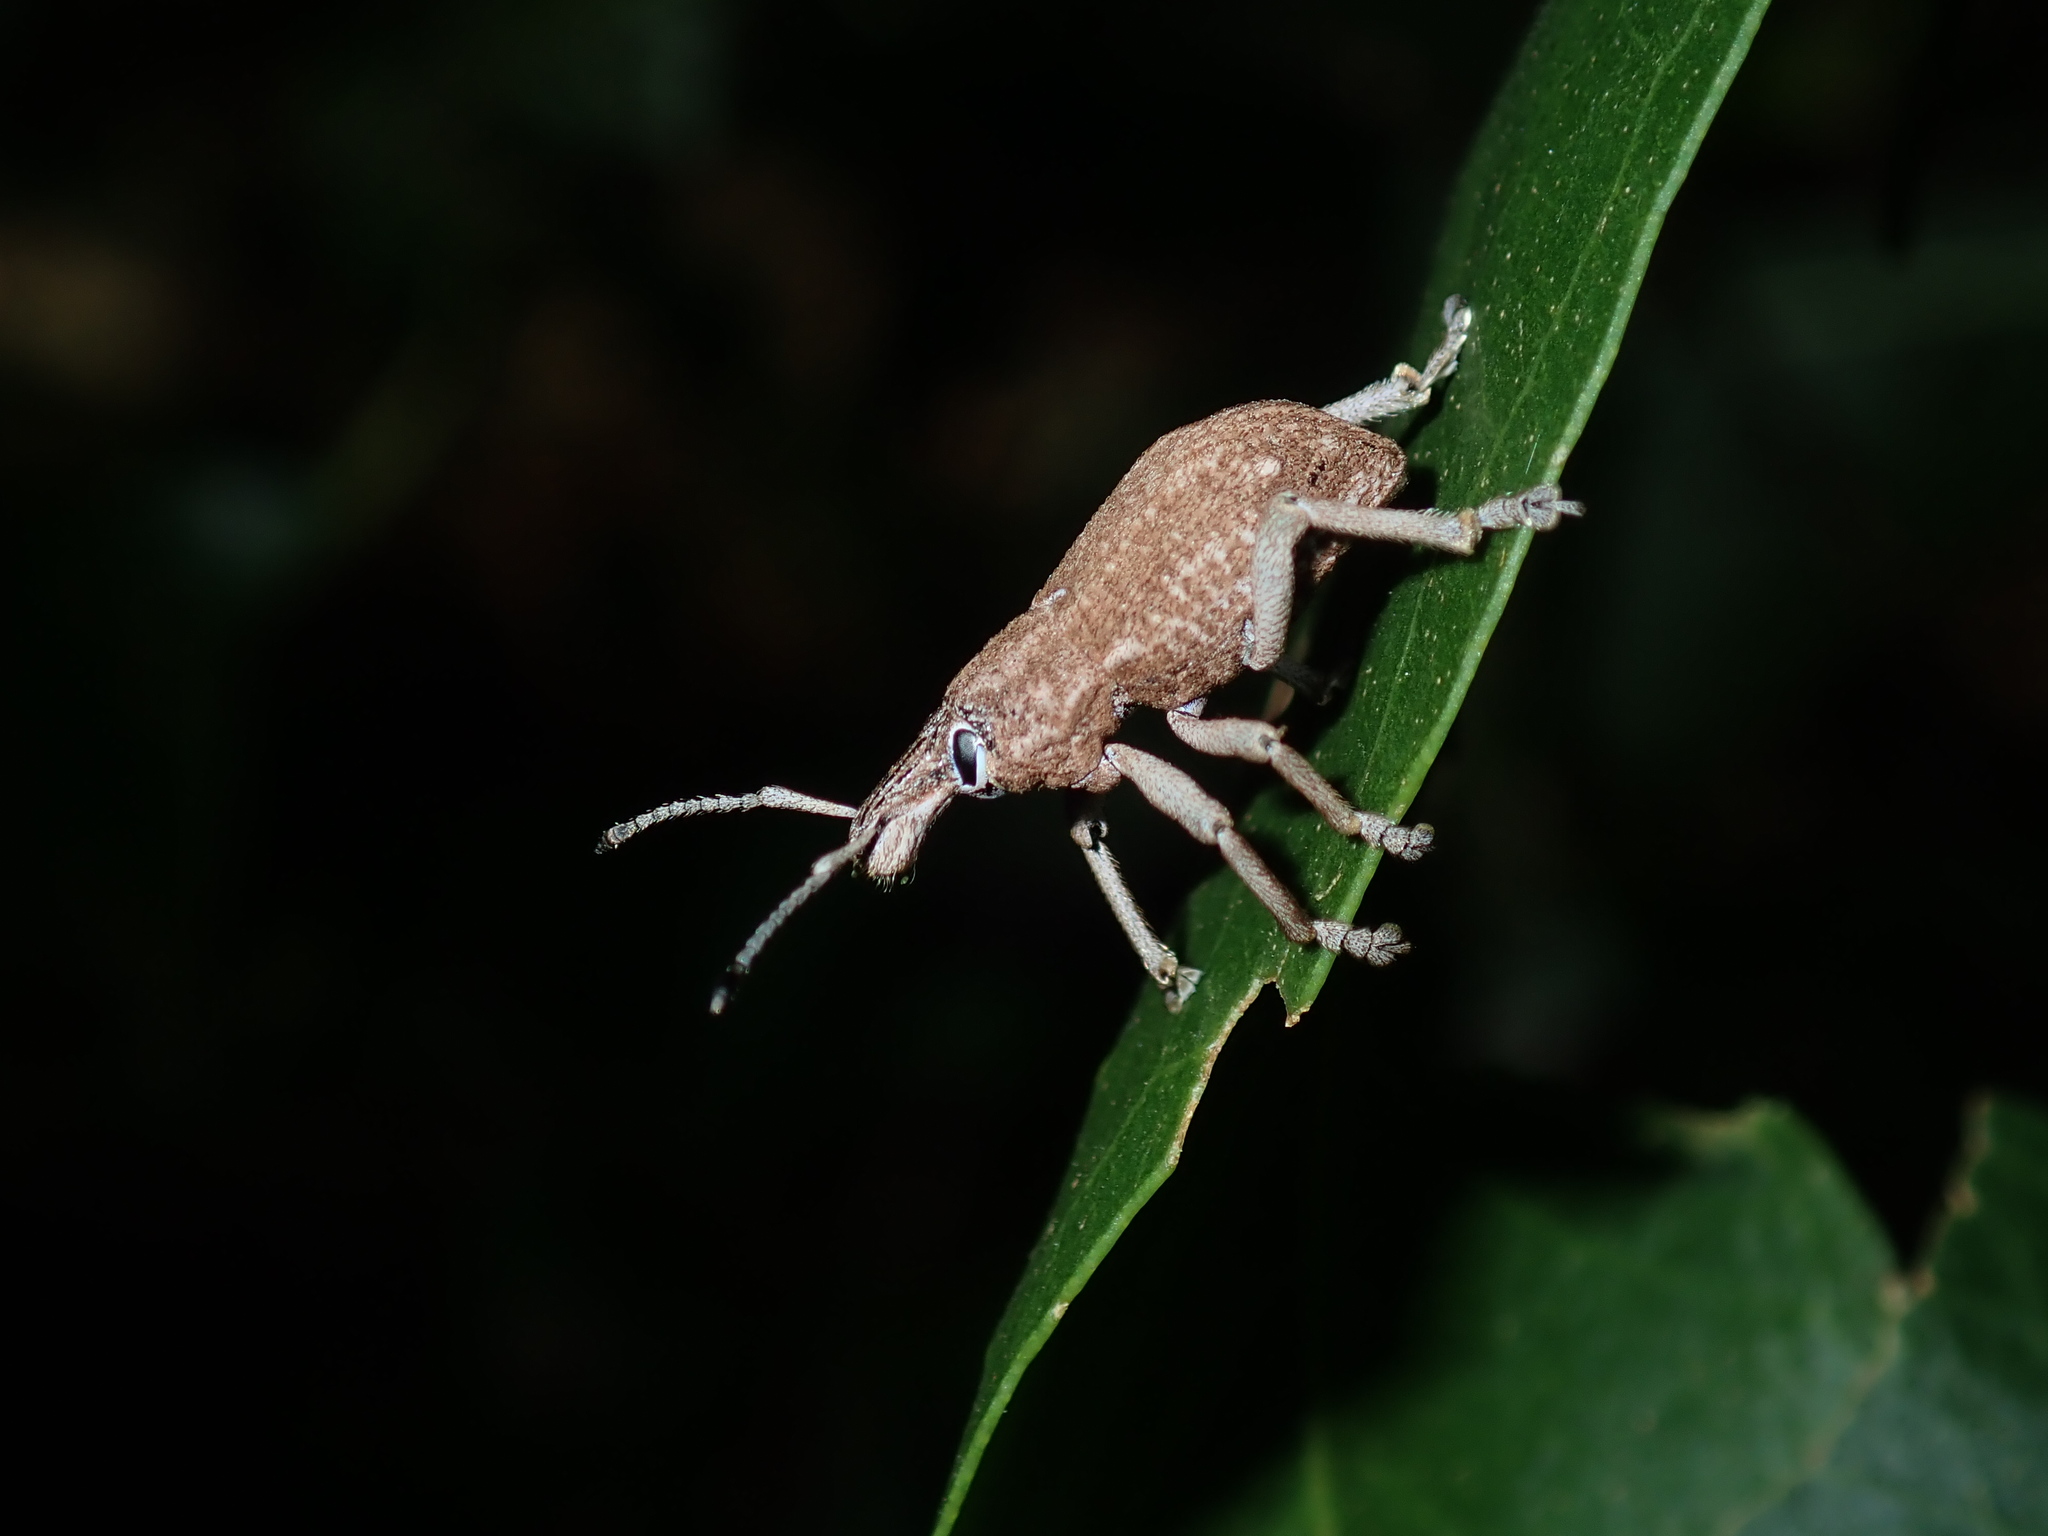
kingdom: Animalia
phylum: Arthropoda
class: Insecta
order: Coleoptera
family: Curculionidae
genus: Leptopius
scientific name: Leptopius robustus
